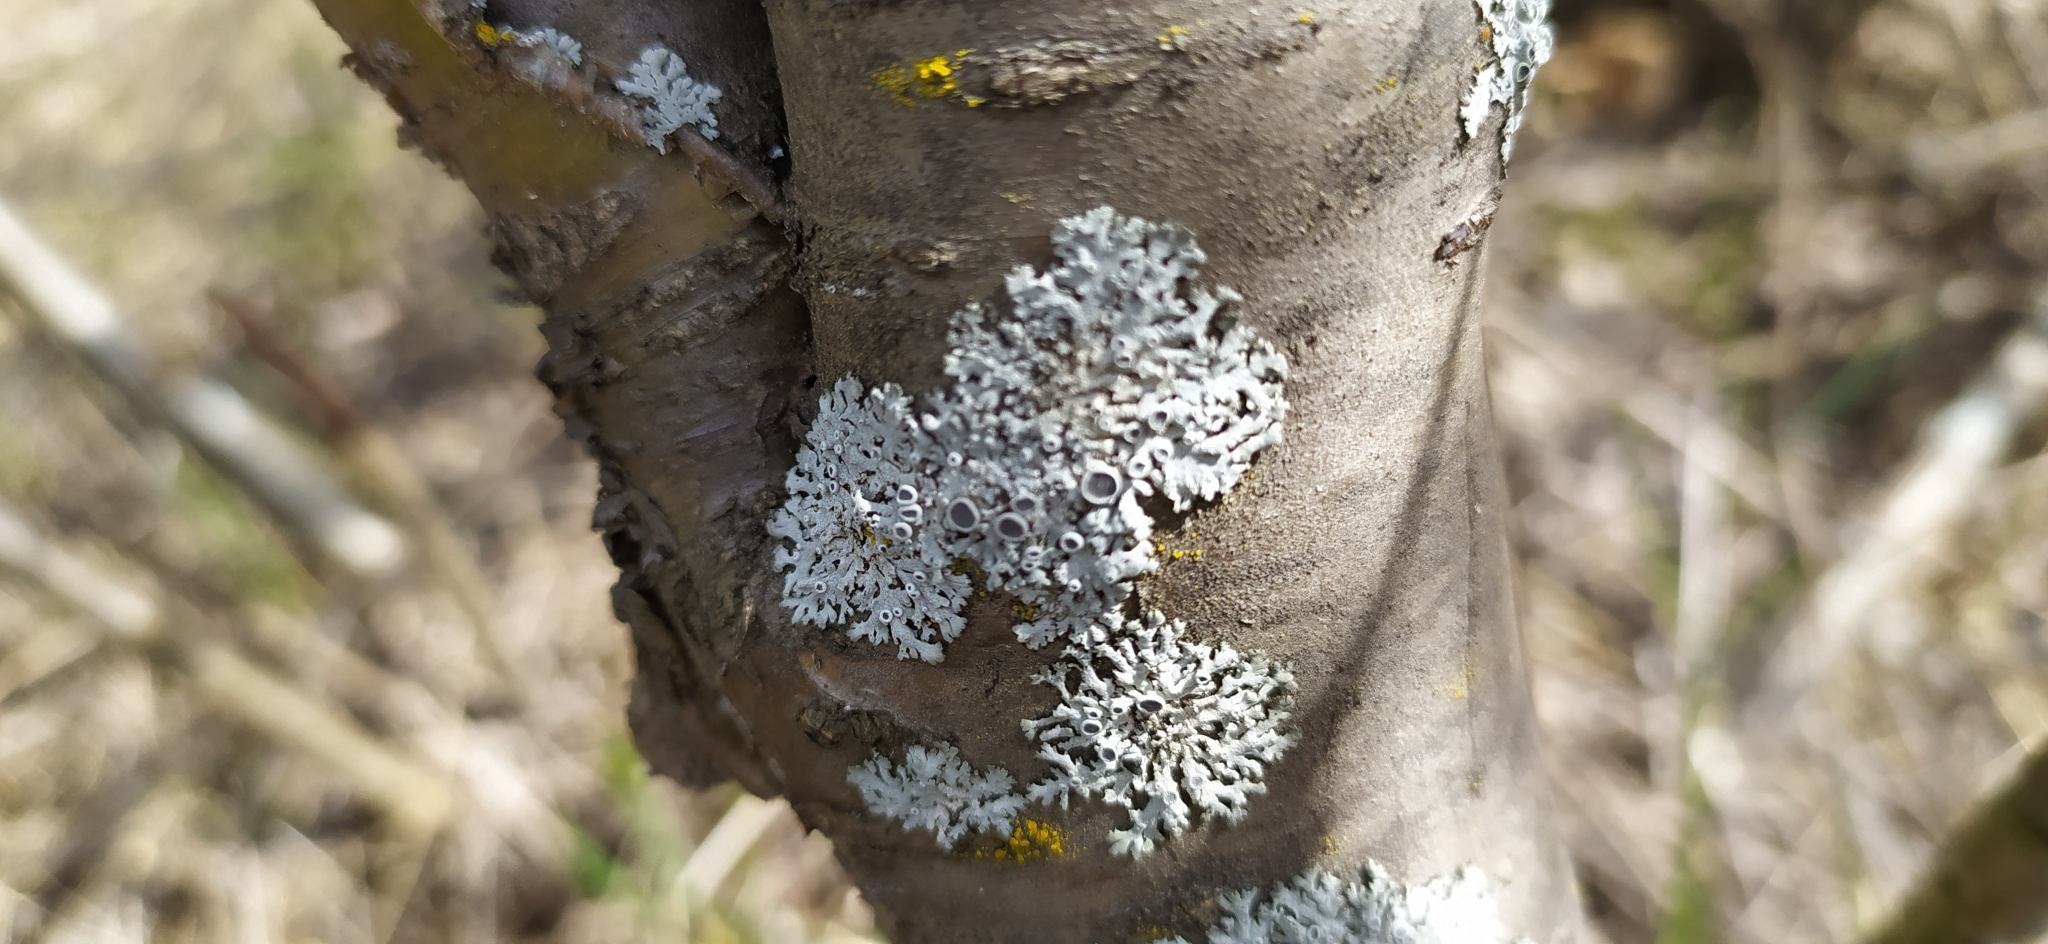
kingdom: Fungi
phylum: Ascomycota
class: Lecanoromycetes
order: Caliciales
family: Physciaceae
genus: Physcia
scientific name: Physcia stellaris
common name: Star rosette lichen
